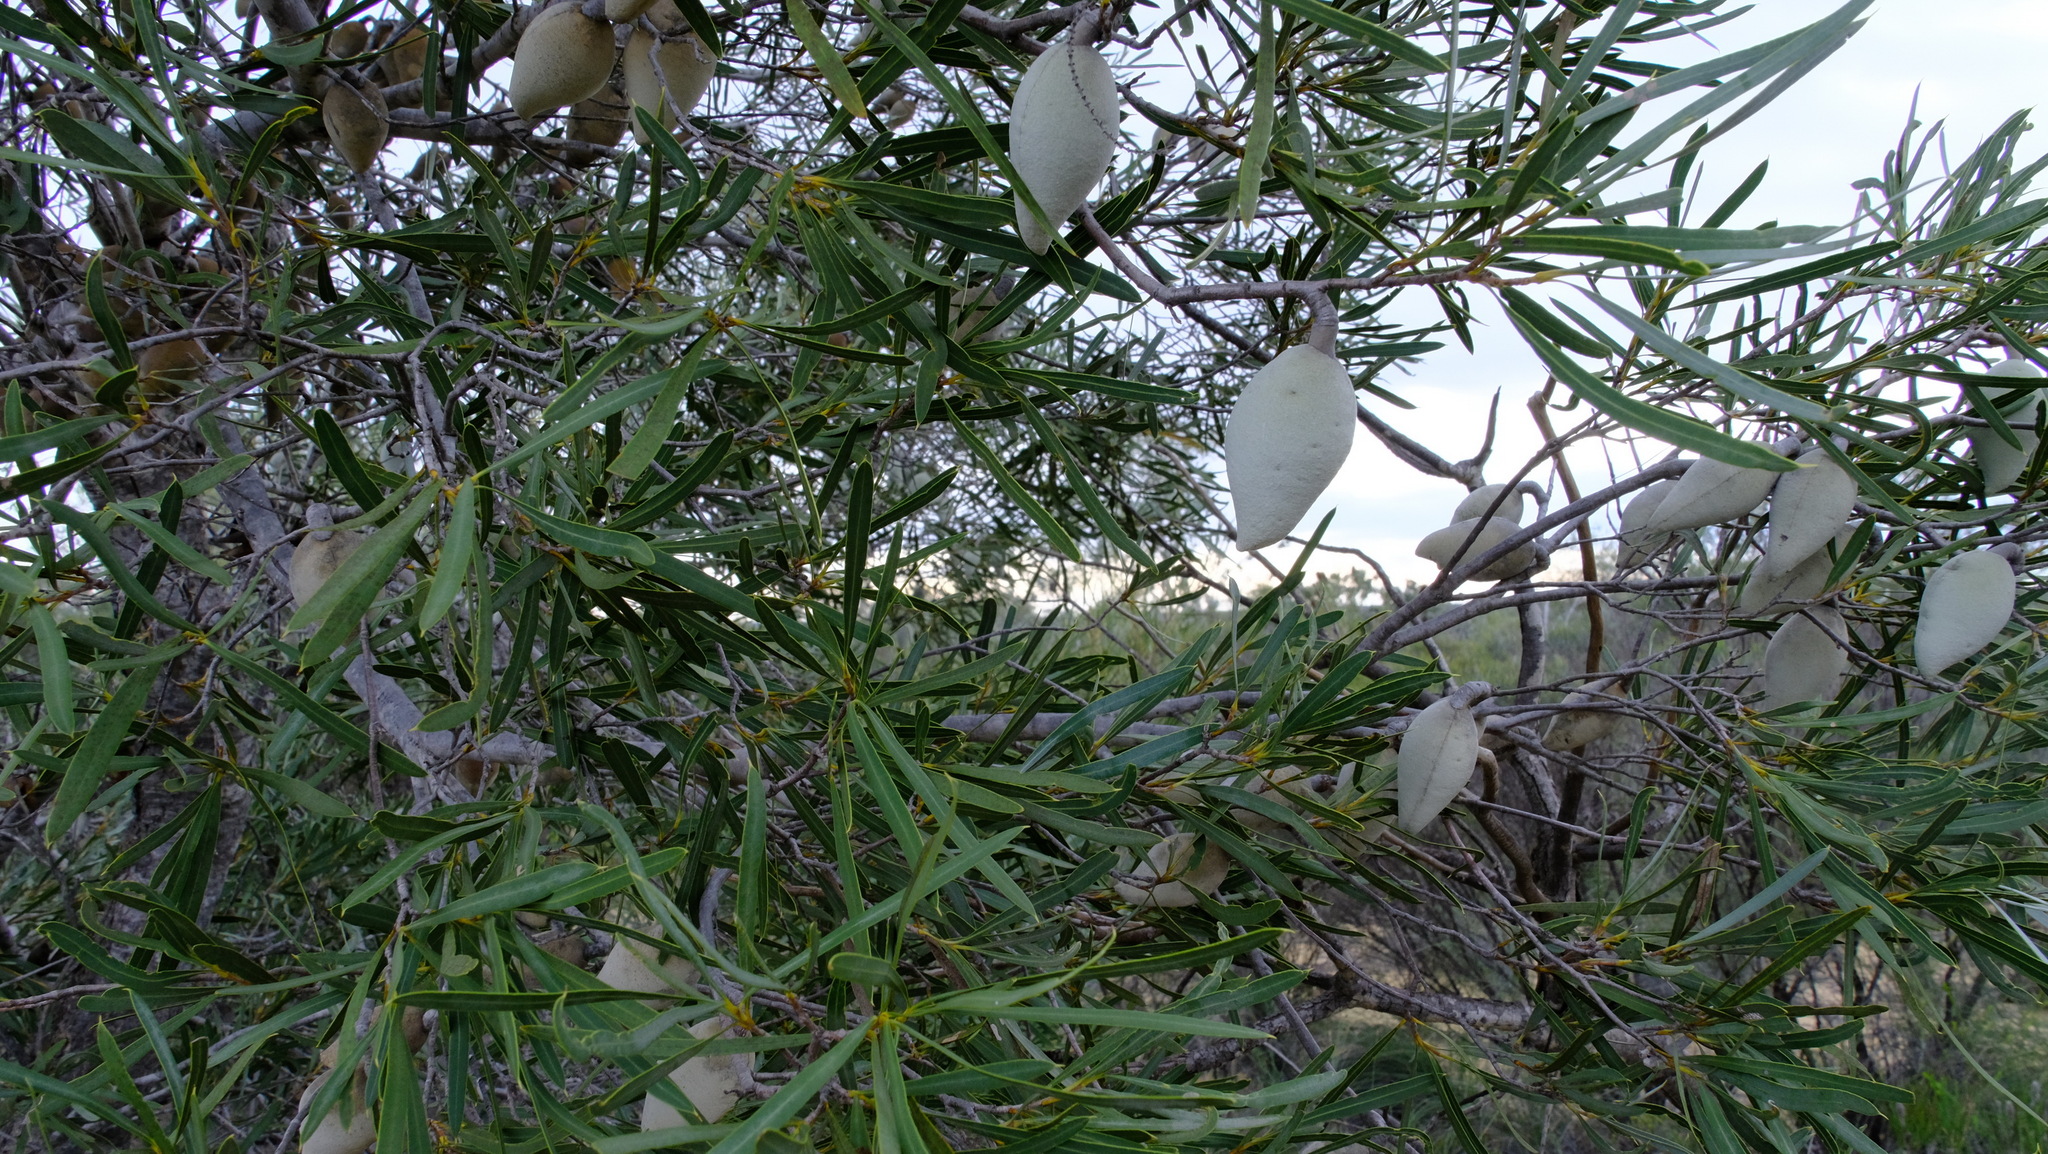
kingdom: Plantae
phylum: Tracheophyta
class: Magnoliopsida
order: Proteales
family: Proteaceae
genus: Xylomelum
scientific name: Xylomelum angustifolium
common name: Sandplain woody-pear
